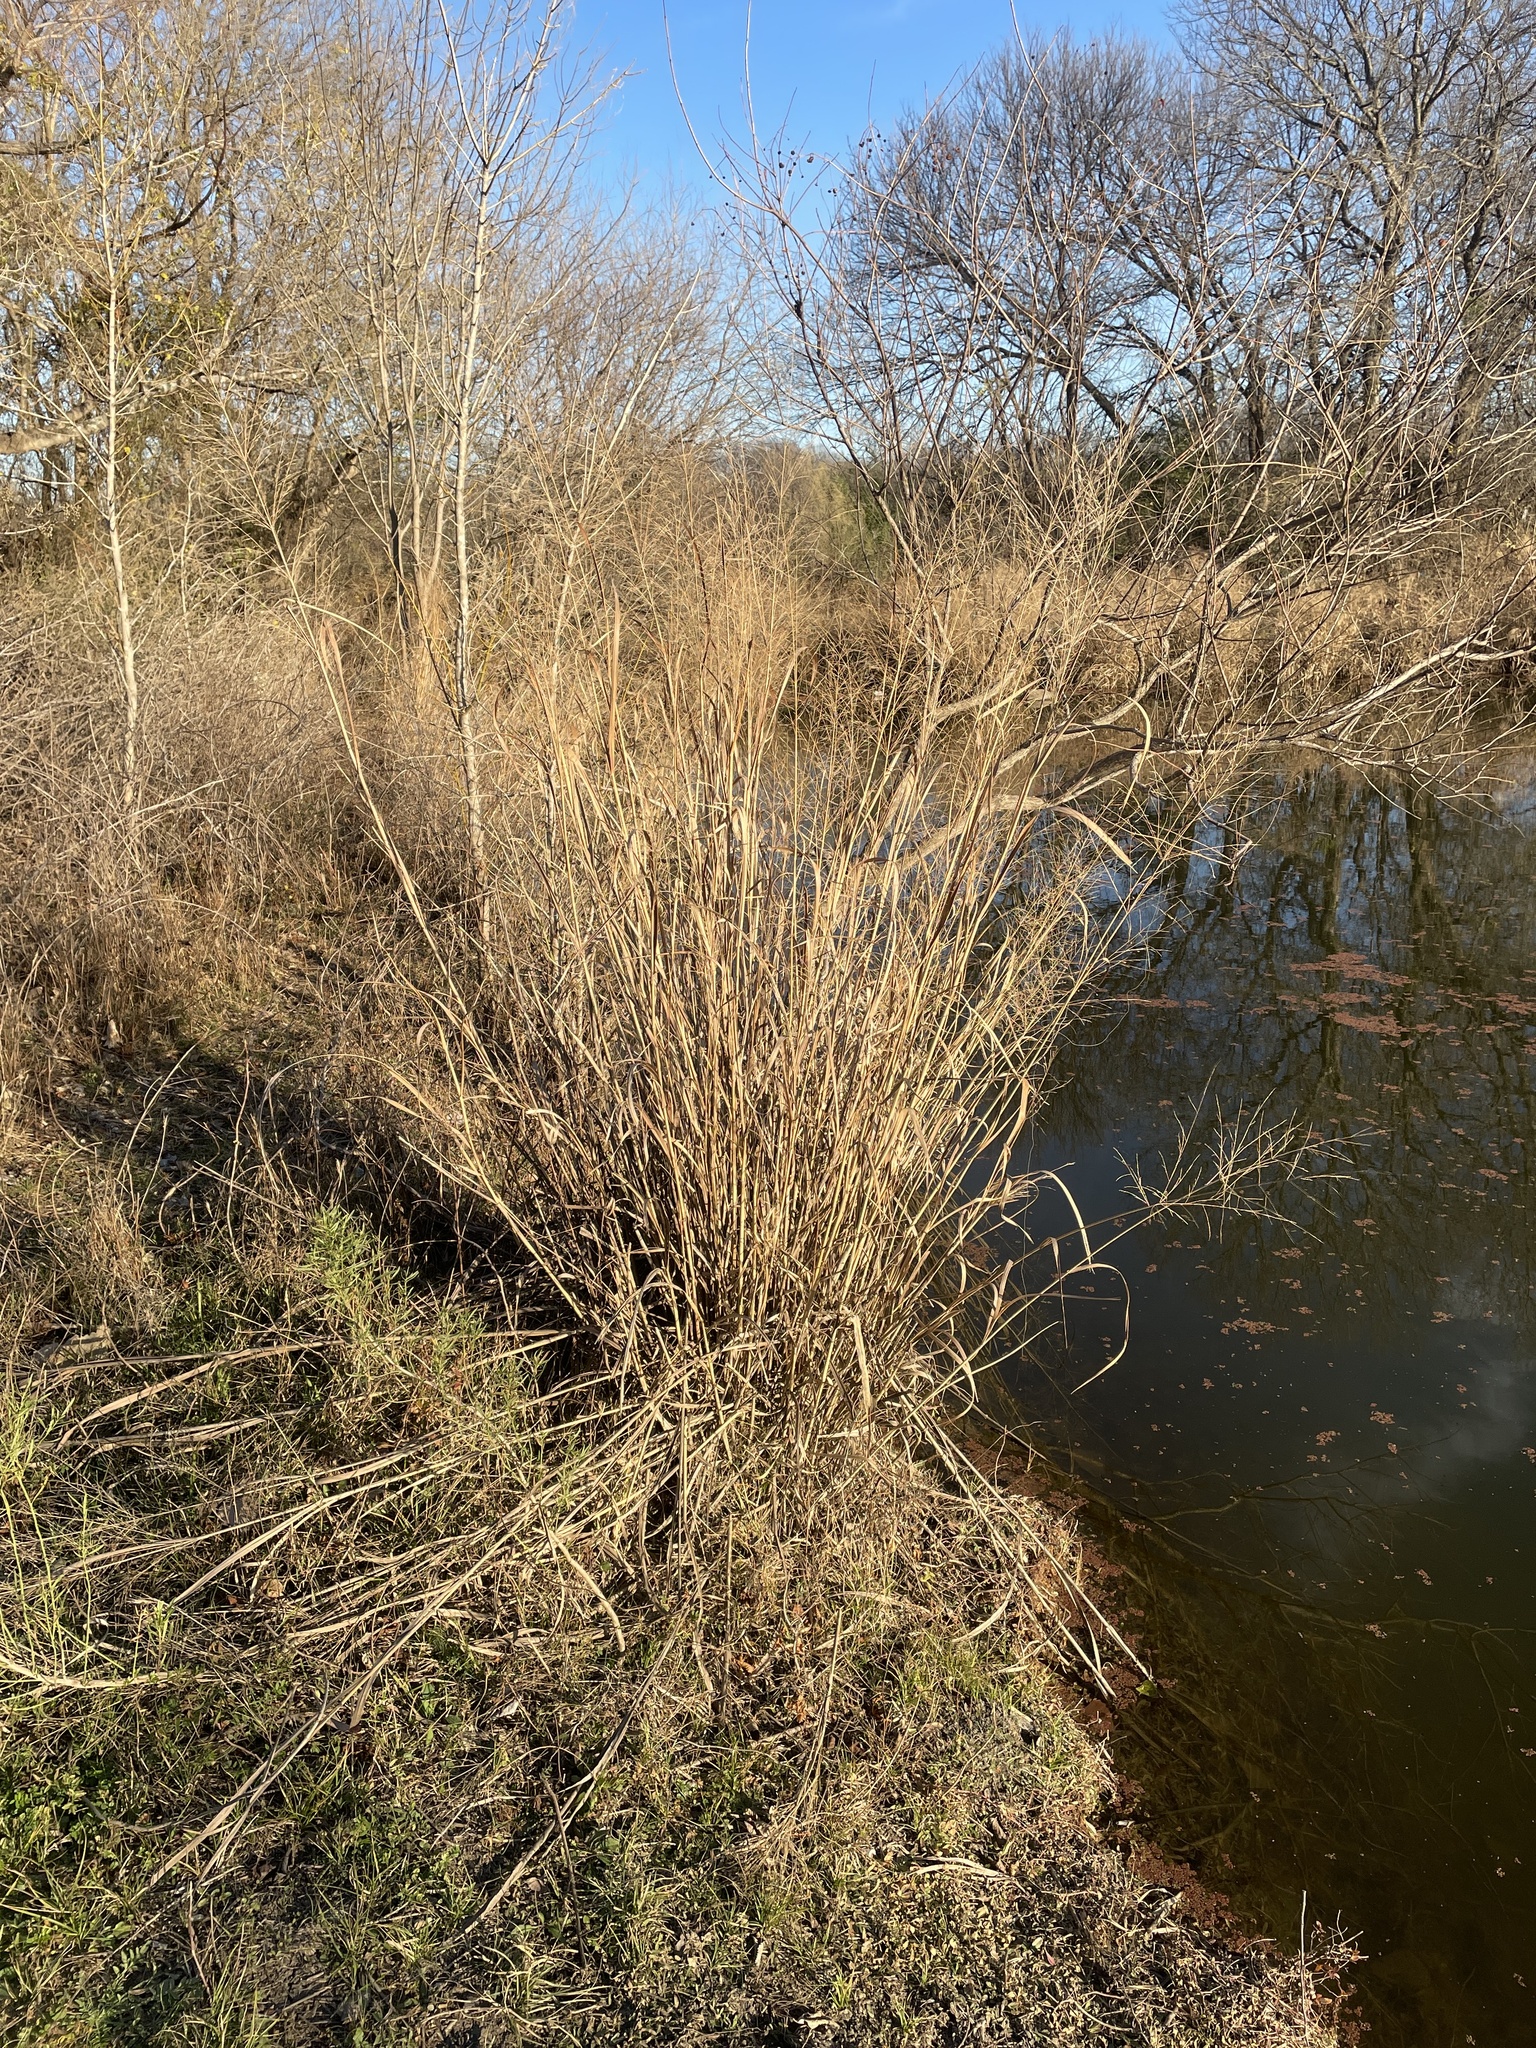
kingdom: Plantae
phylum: Tracheophyta
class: Liliopsida
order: Poales
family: Poaceae
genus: Panicum
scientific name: Panicum virgatum
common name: Switchgrass
